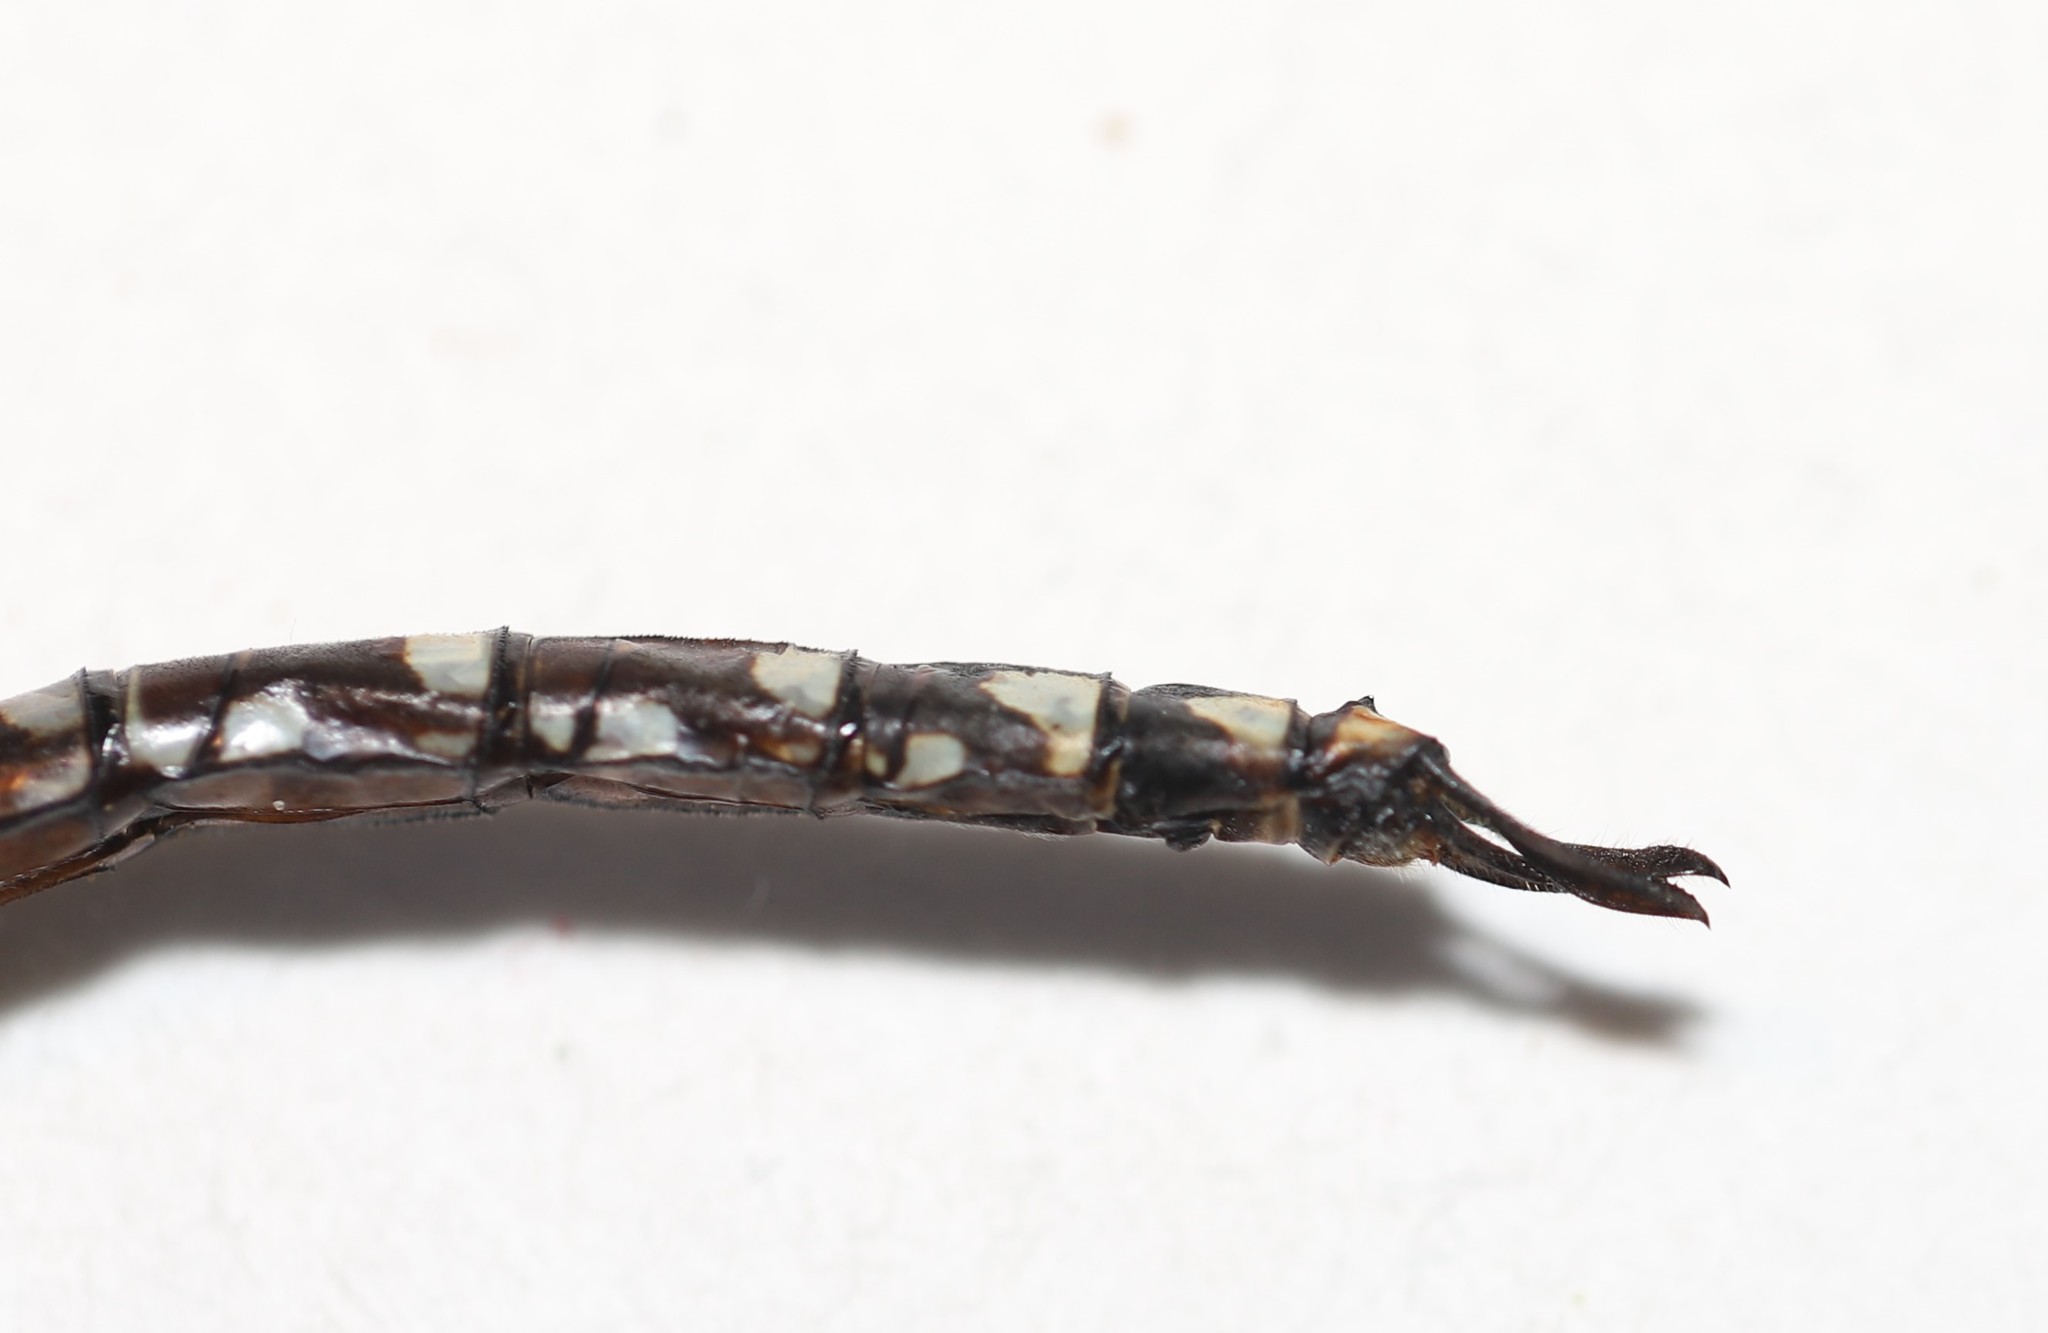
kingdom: Animalia
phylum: Arthropoda
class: Insecta
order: Odonata
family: Aeshnidae
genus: Aeshna
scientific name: Aeshna canadensis
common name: Canada darner
